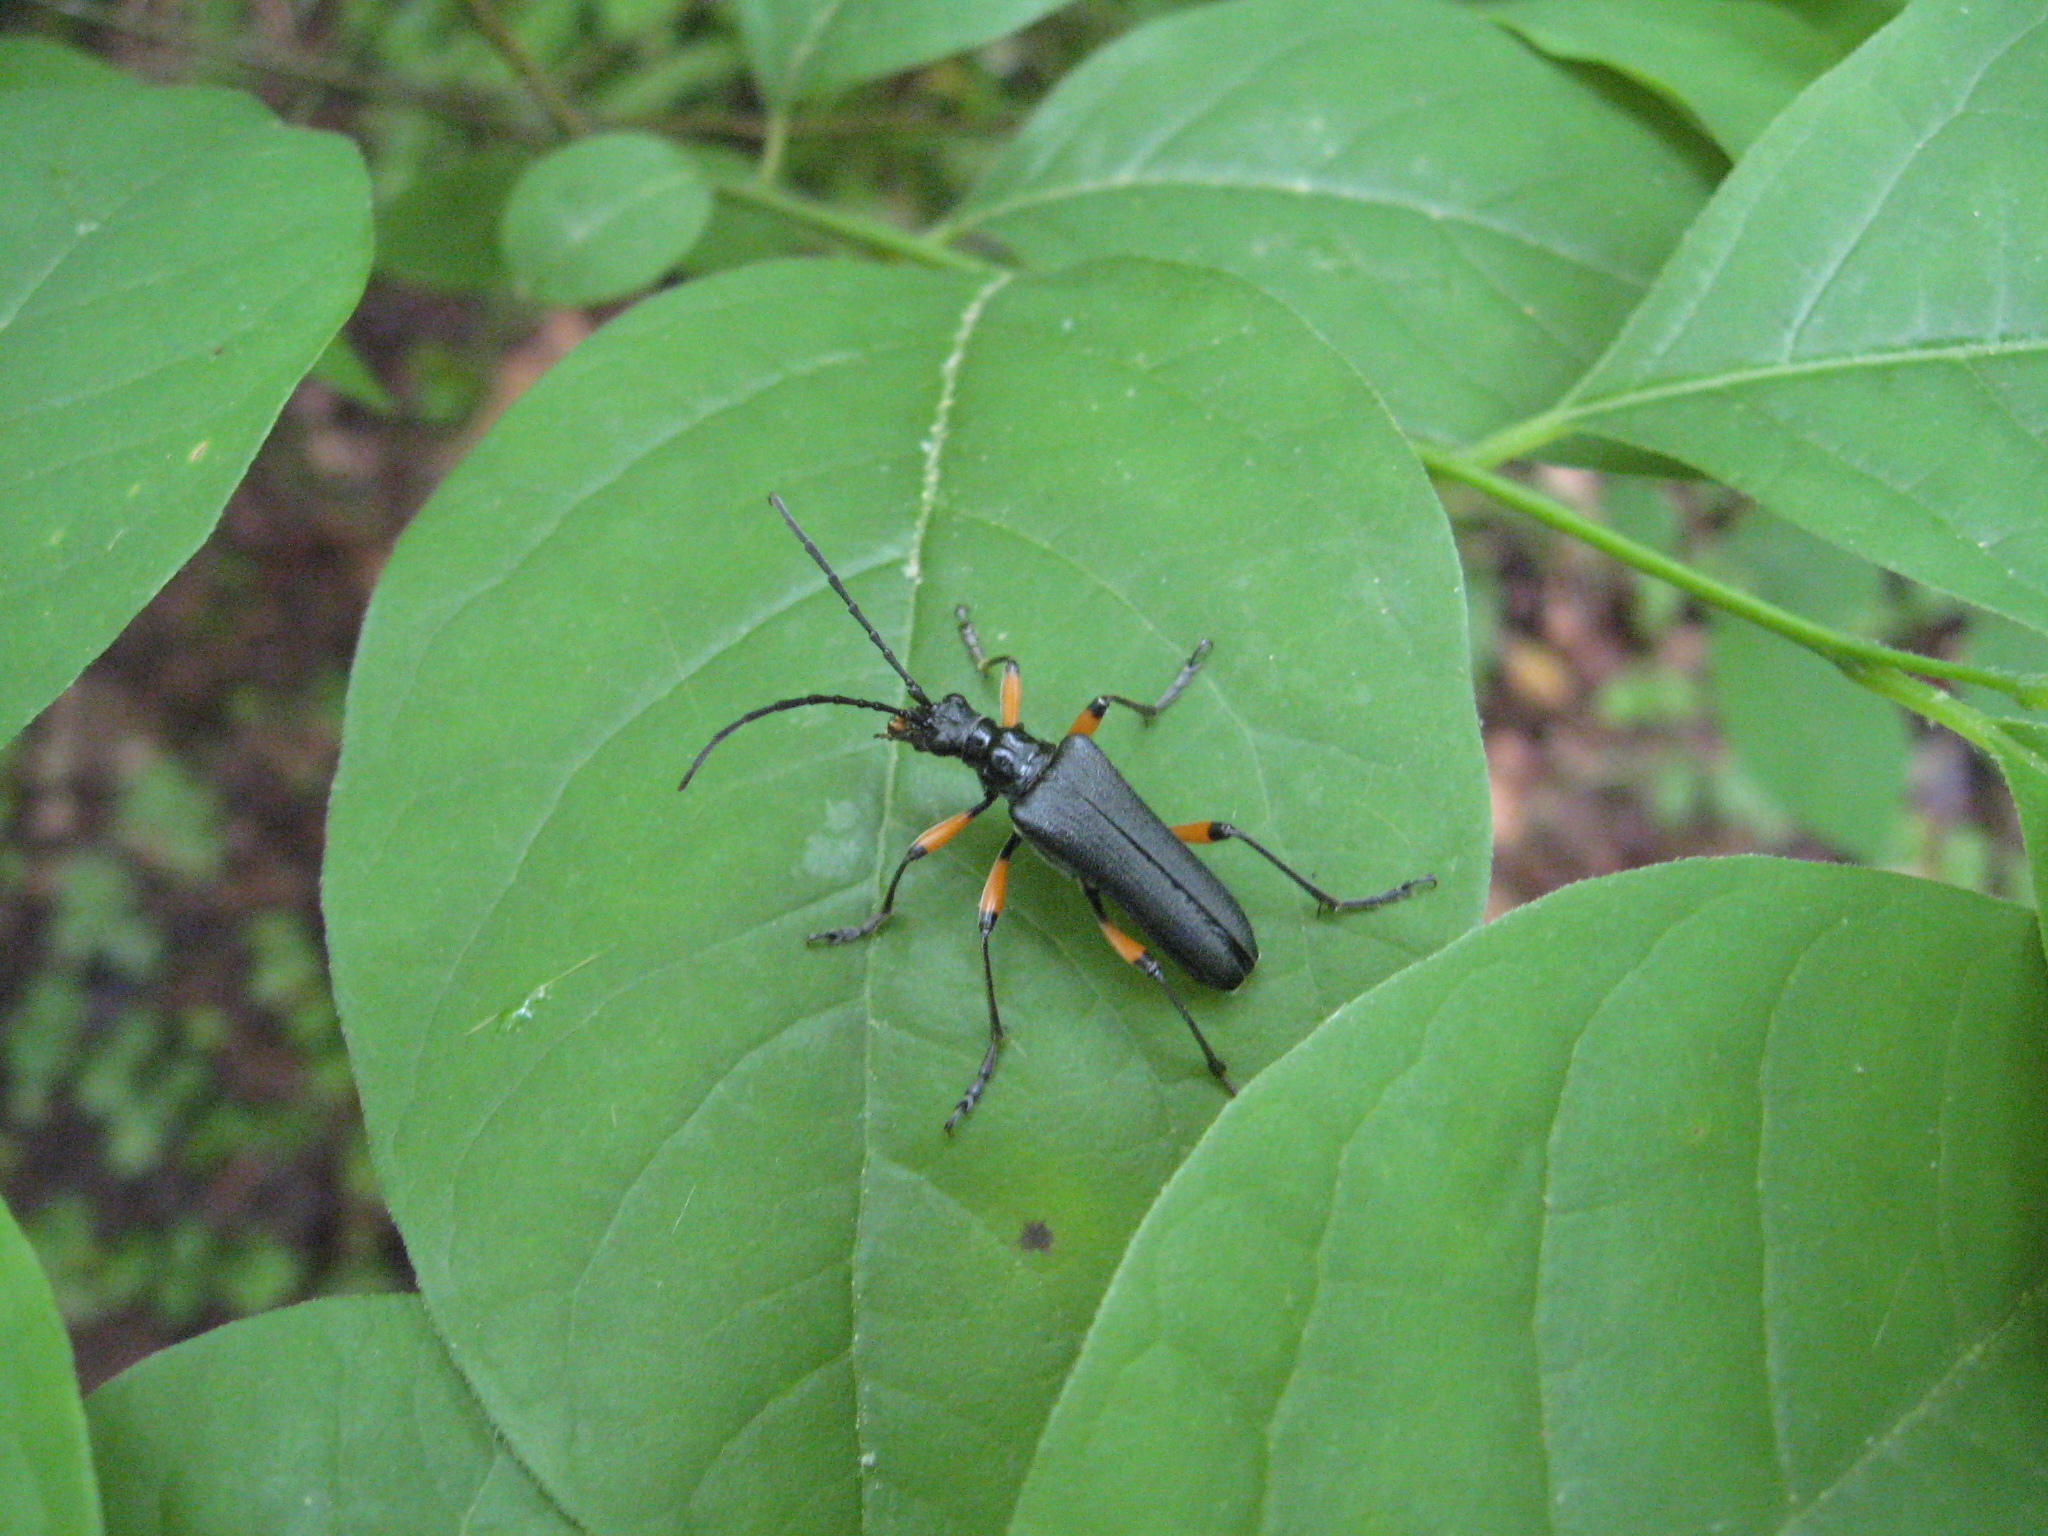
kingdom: Animalia
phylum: Arthropoda
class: Insecta
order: Coleoptera
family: Cerambycidae
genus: Stenocorus
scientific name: Stenocorus schaumii
